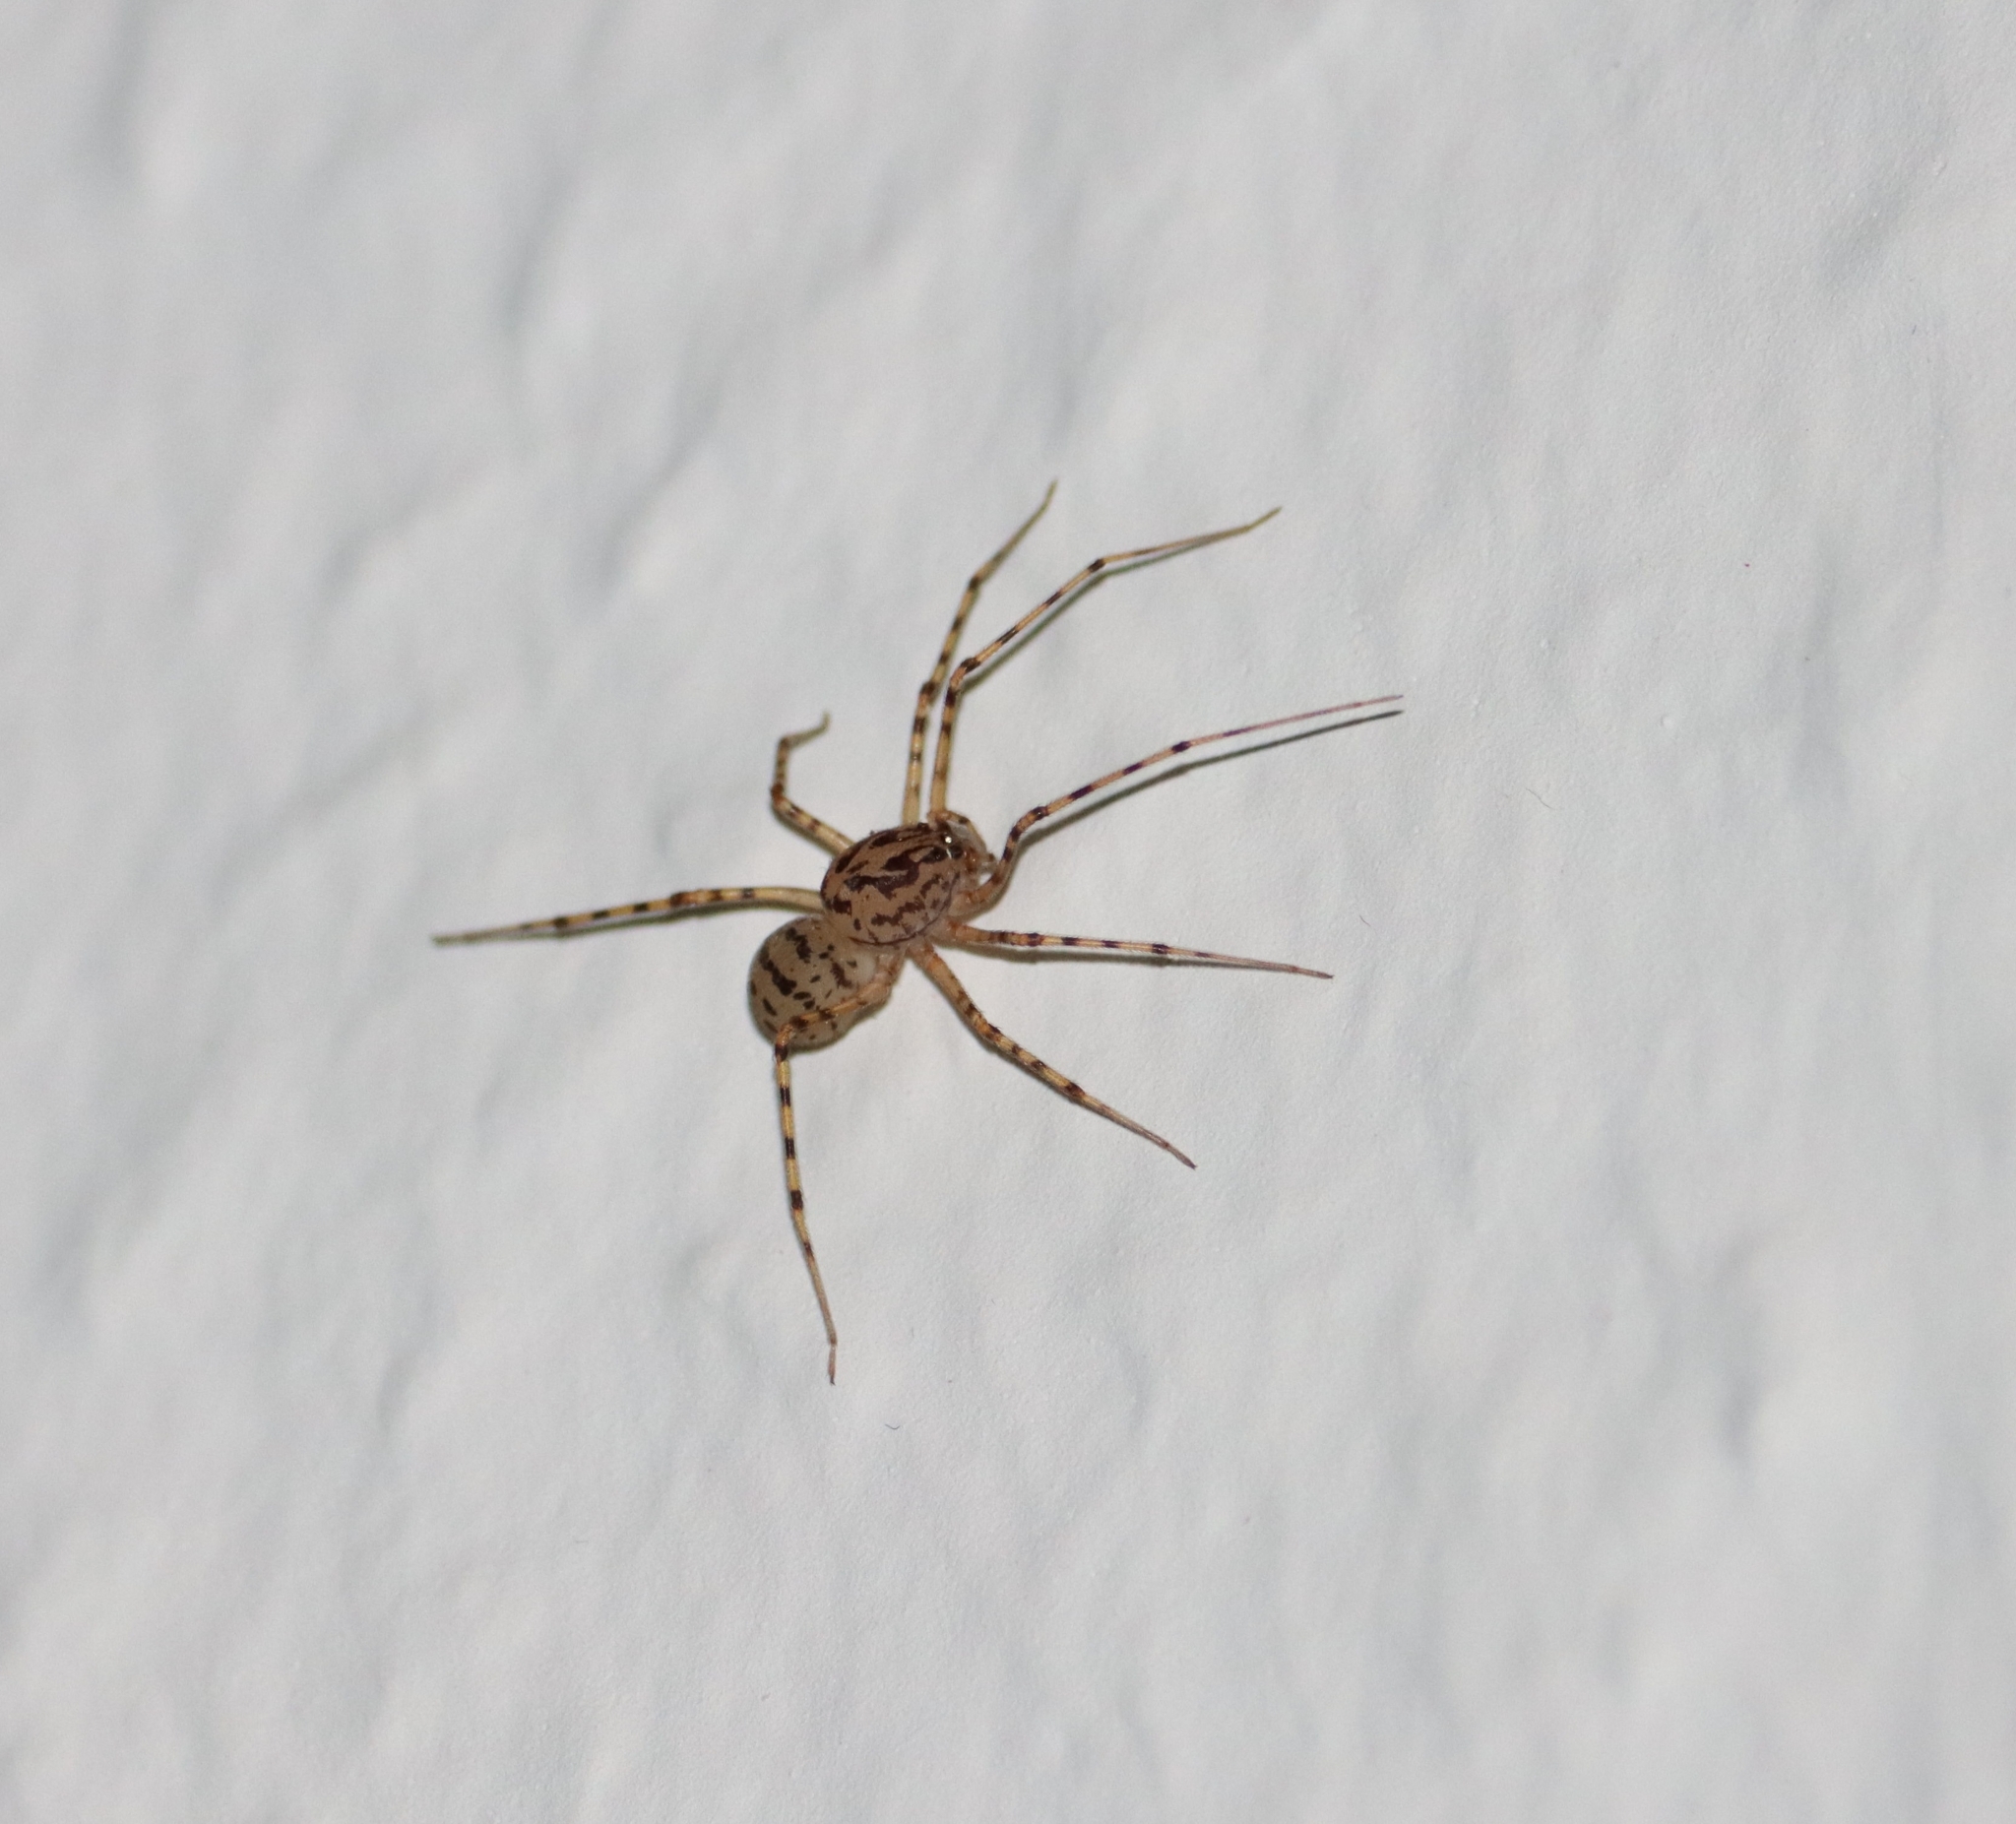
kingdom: Animalia
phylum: Arthropoda
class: Arachnida
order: Araneae
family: Scytodidae
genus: Scytodes
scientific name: Scytodes thoracica
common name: Spitting spider
